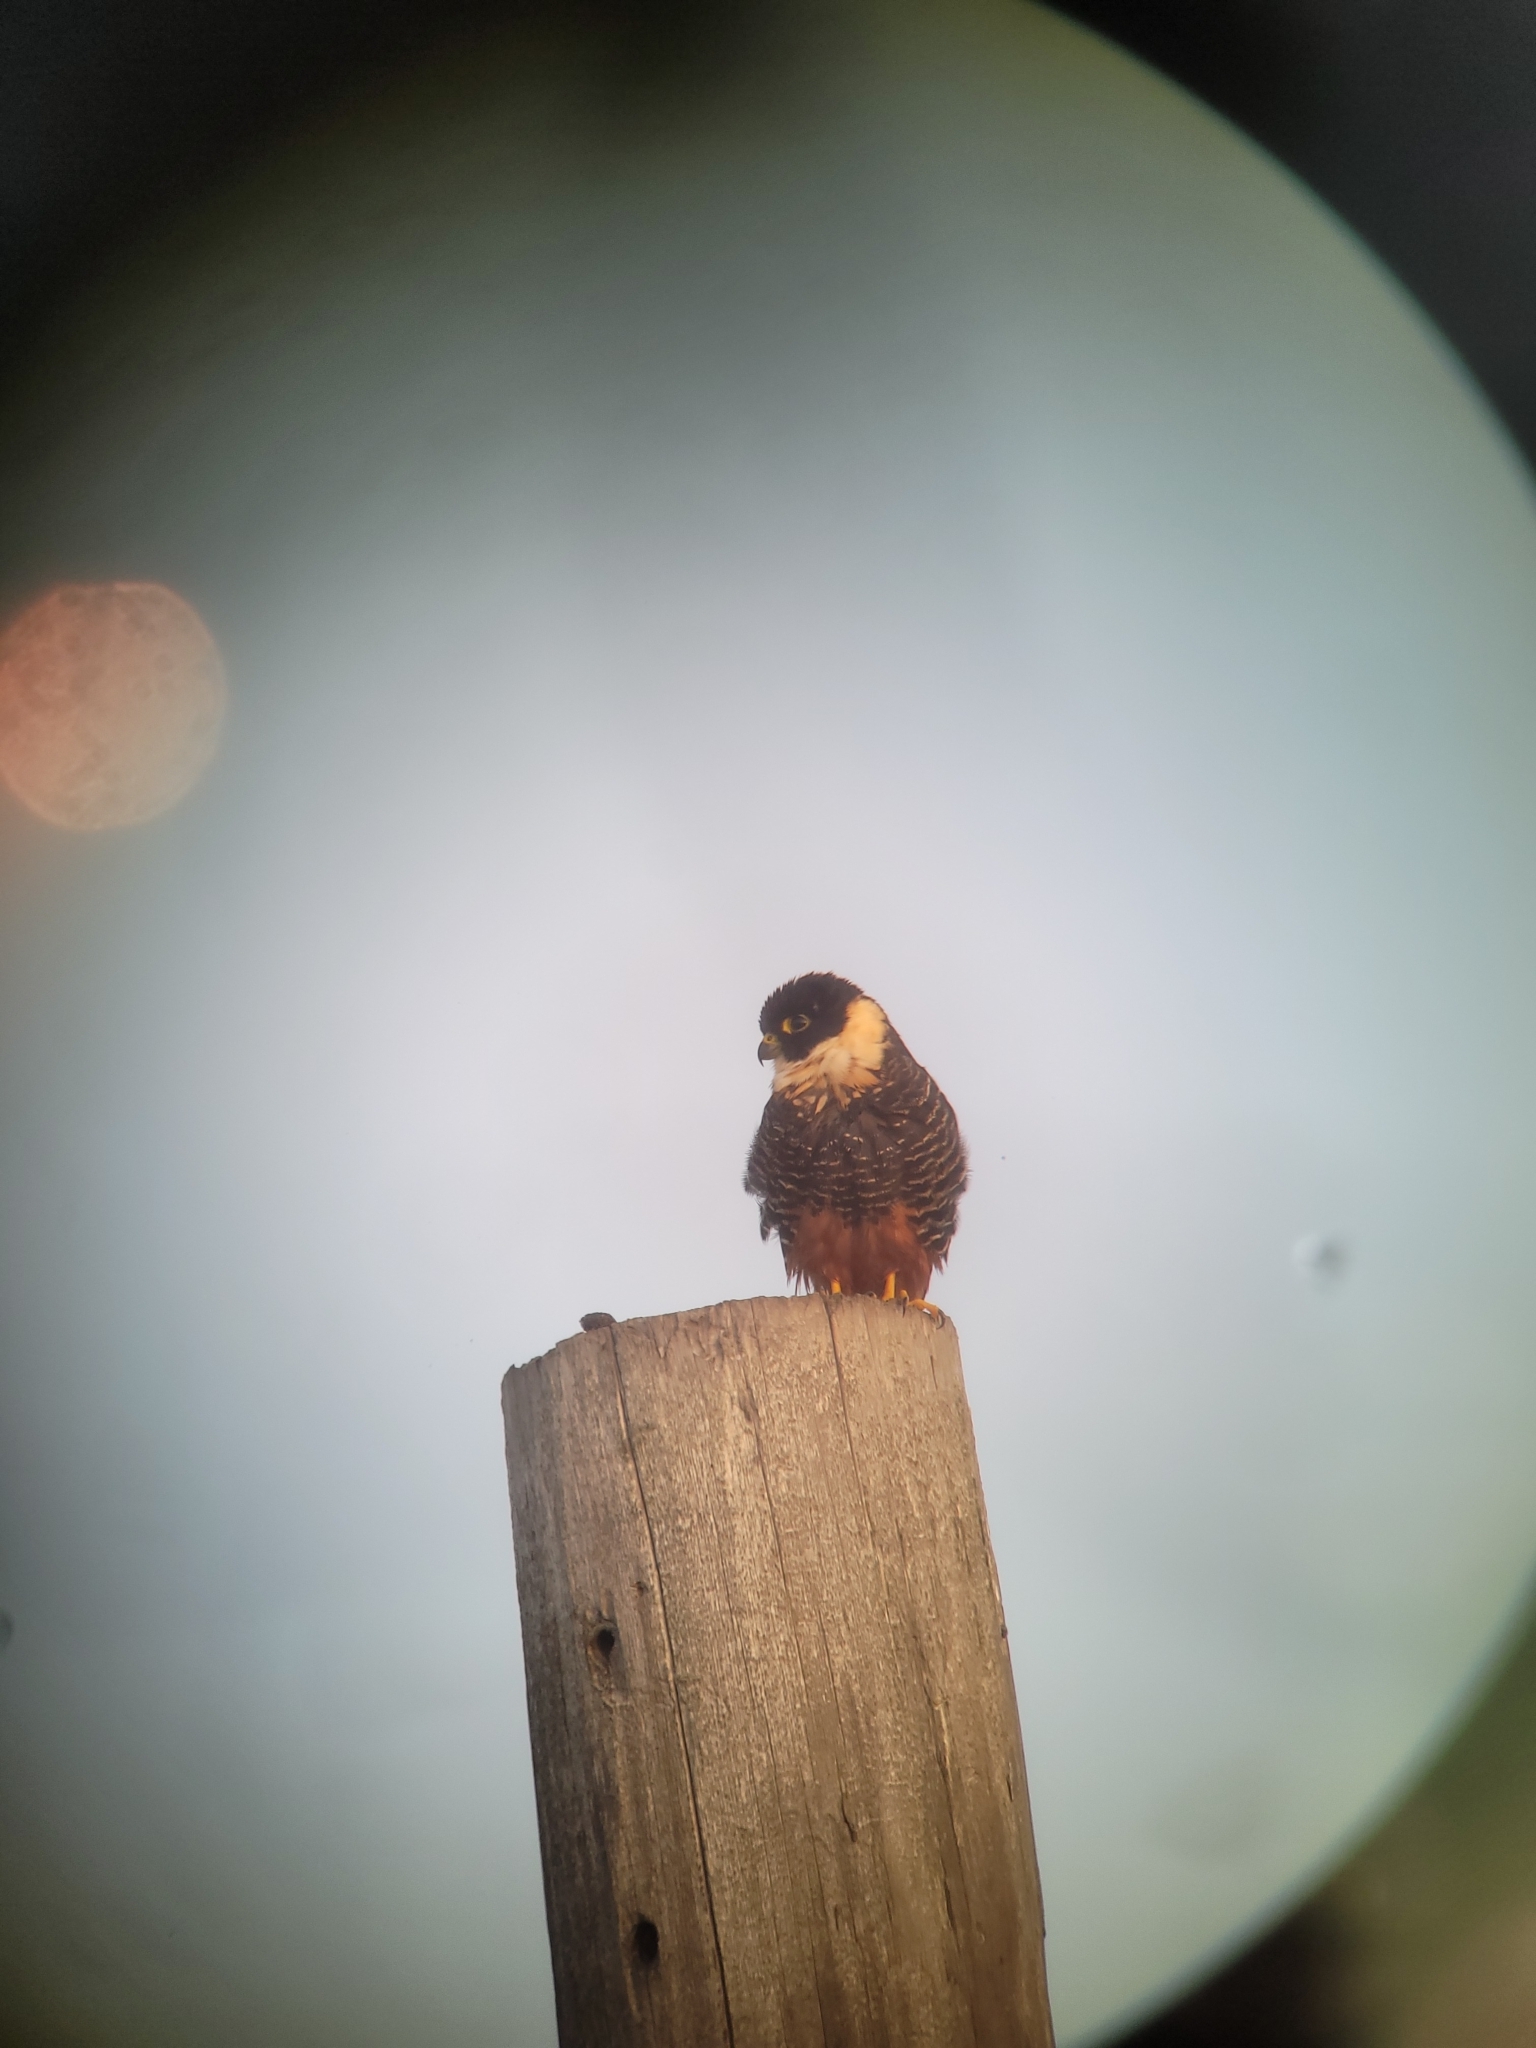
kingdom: Animalia
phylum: Chordata
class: Aves
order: Falconiformes
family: Falconidae
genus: Falco
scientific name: Falco rufigularis
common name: Bat falcon
